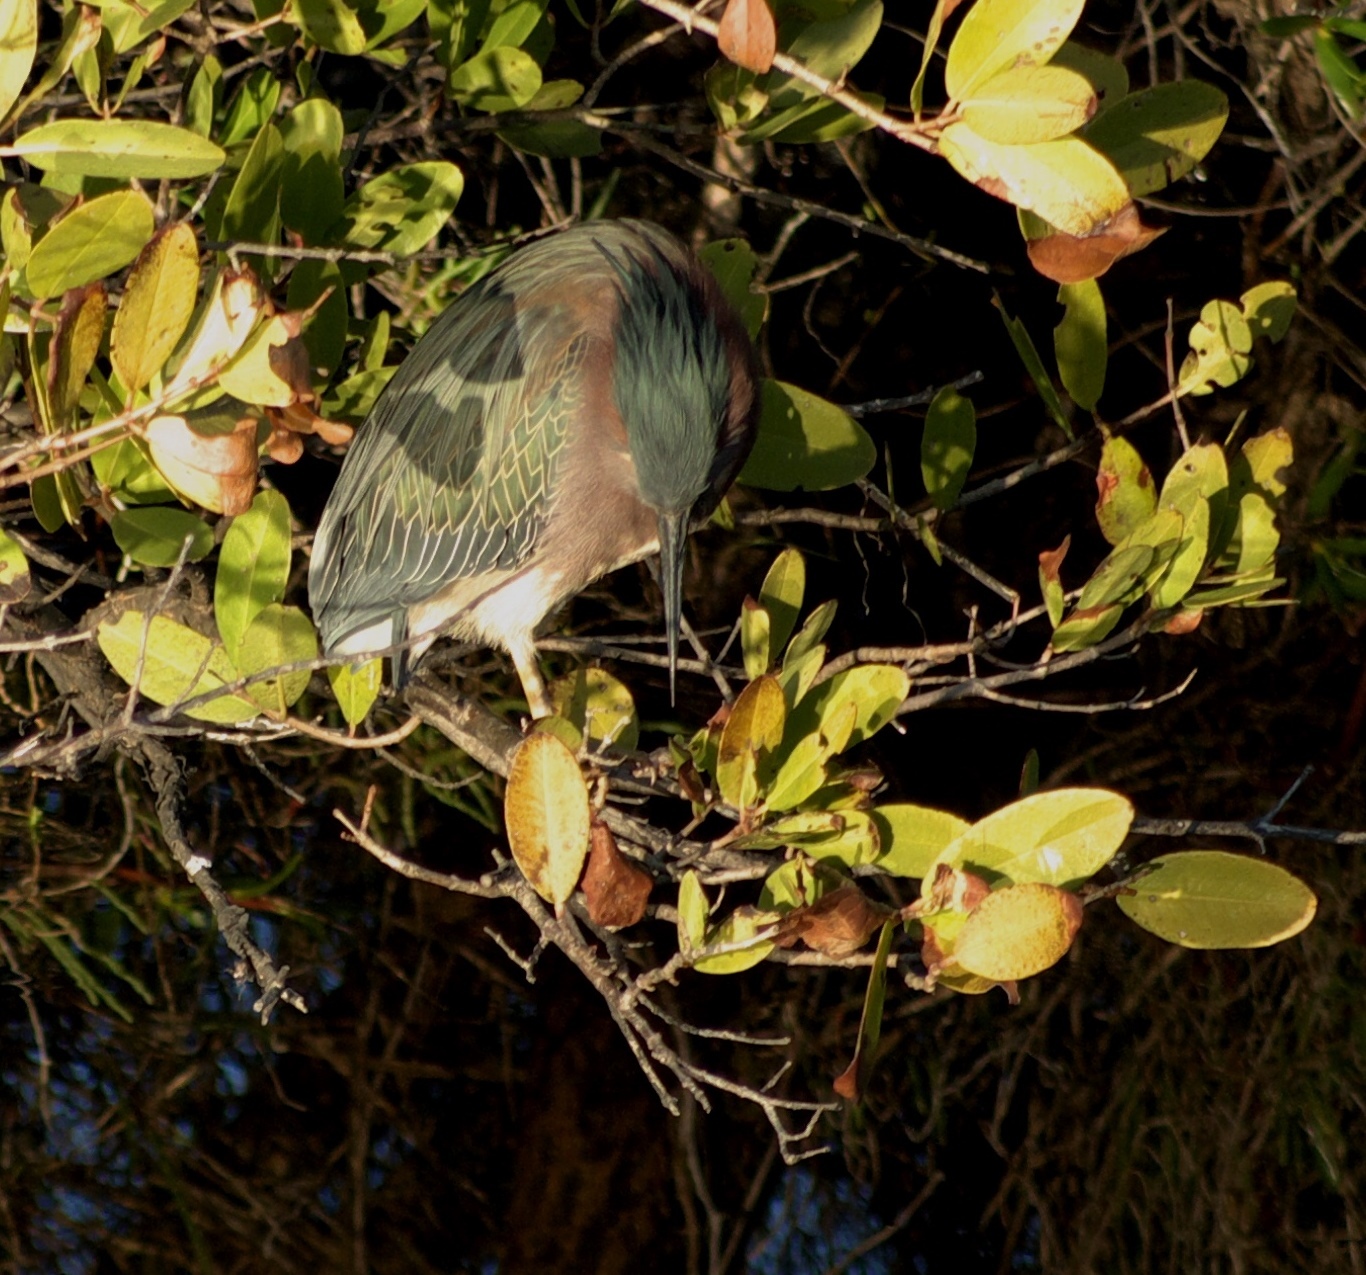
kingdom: Animalia
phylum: Chordata
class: Aves
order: Pelecaniformes
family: Ardeidae
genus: Butorides
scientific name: Butorides virescens
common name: Green heron
